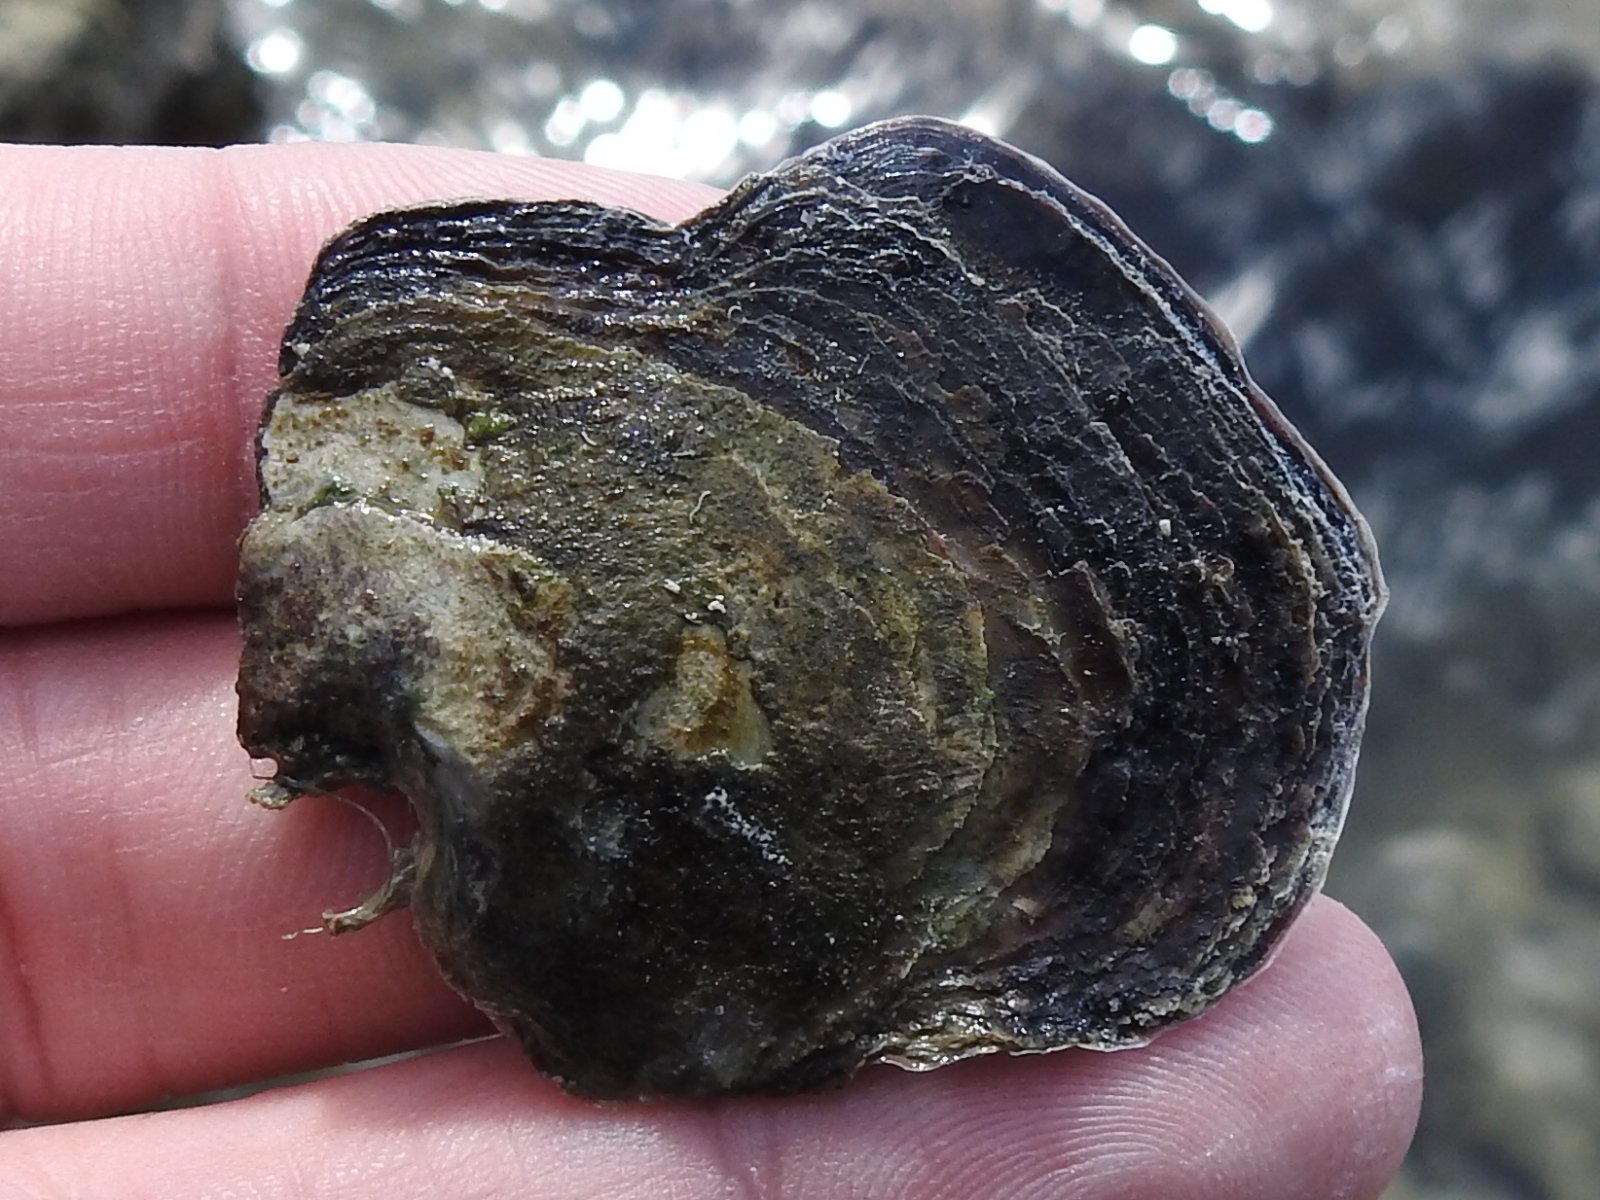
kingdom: Animalia
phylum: Mollusca
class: Bivalvia
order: Ostreida
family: Isognomonidae
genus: Isognomon
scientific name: Isognomon alatus
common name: Flat tree-oyster
